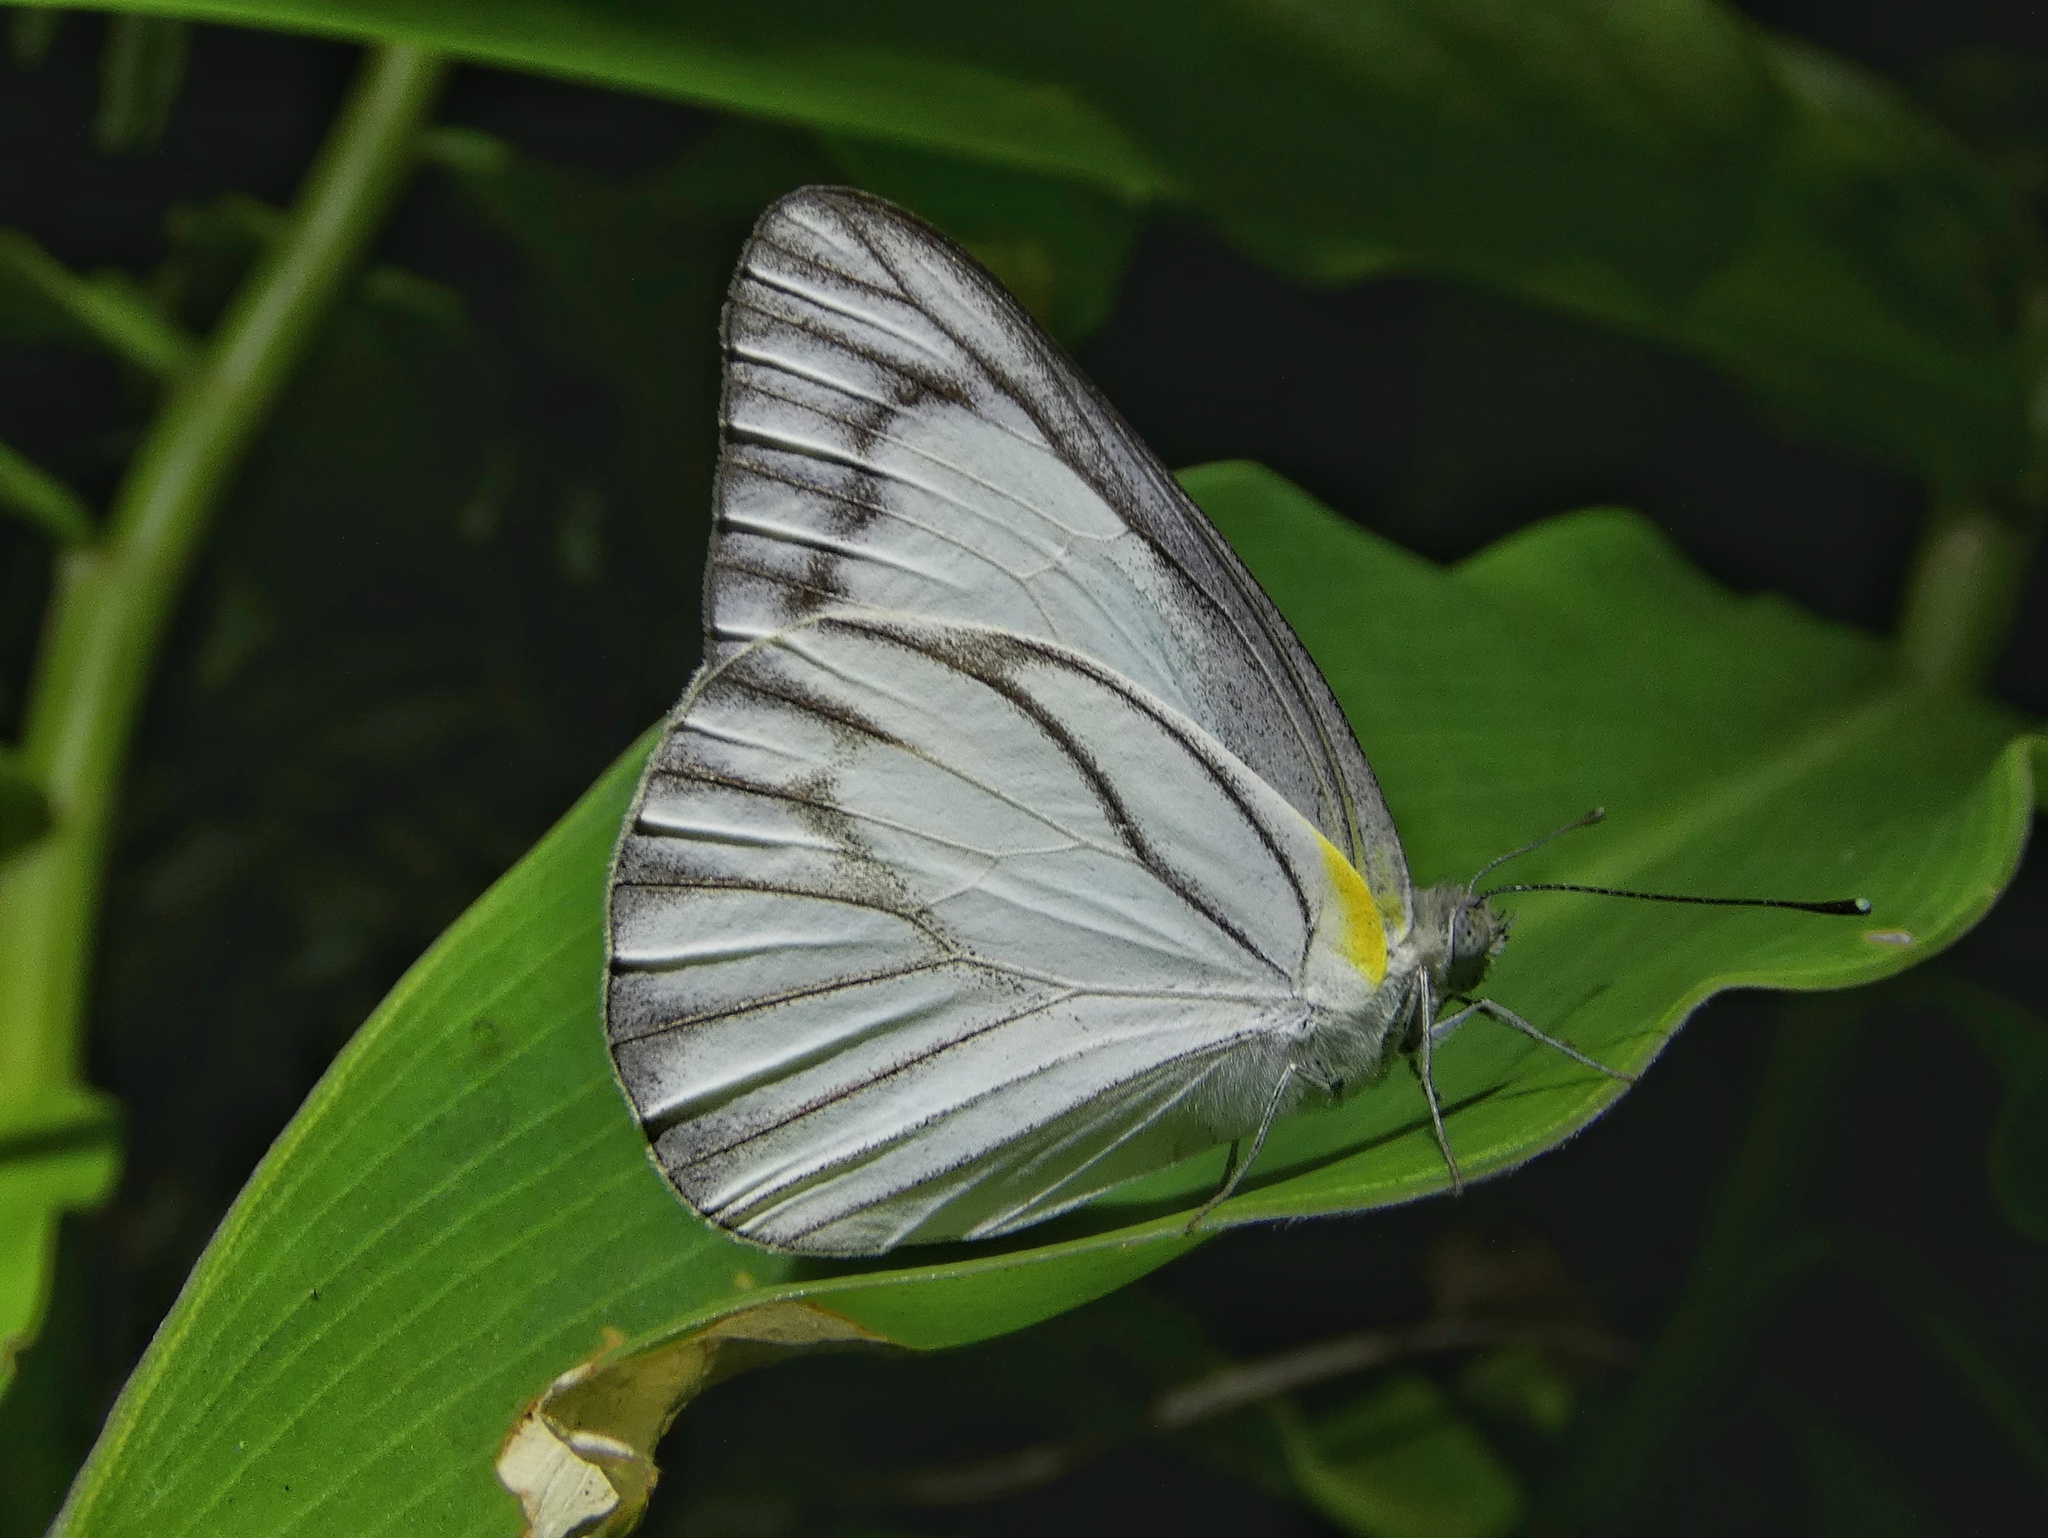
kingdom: Animalia
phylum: Arthropoda
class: Insecta
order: Lepidoptera
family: Pieridae
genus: Appias
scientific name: Appias libythea
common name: Striped albatross
